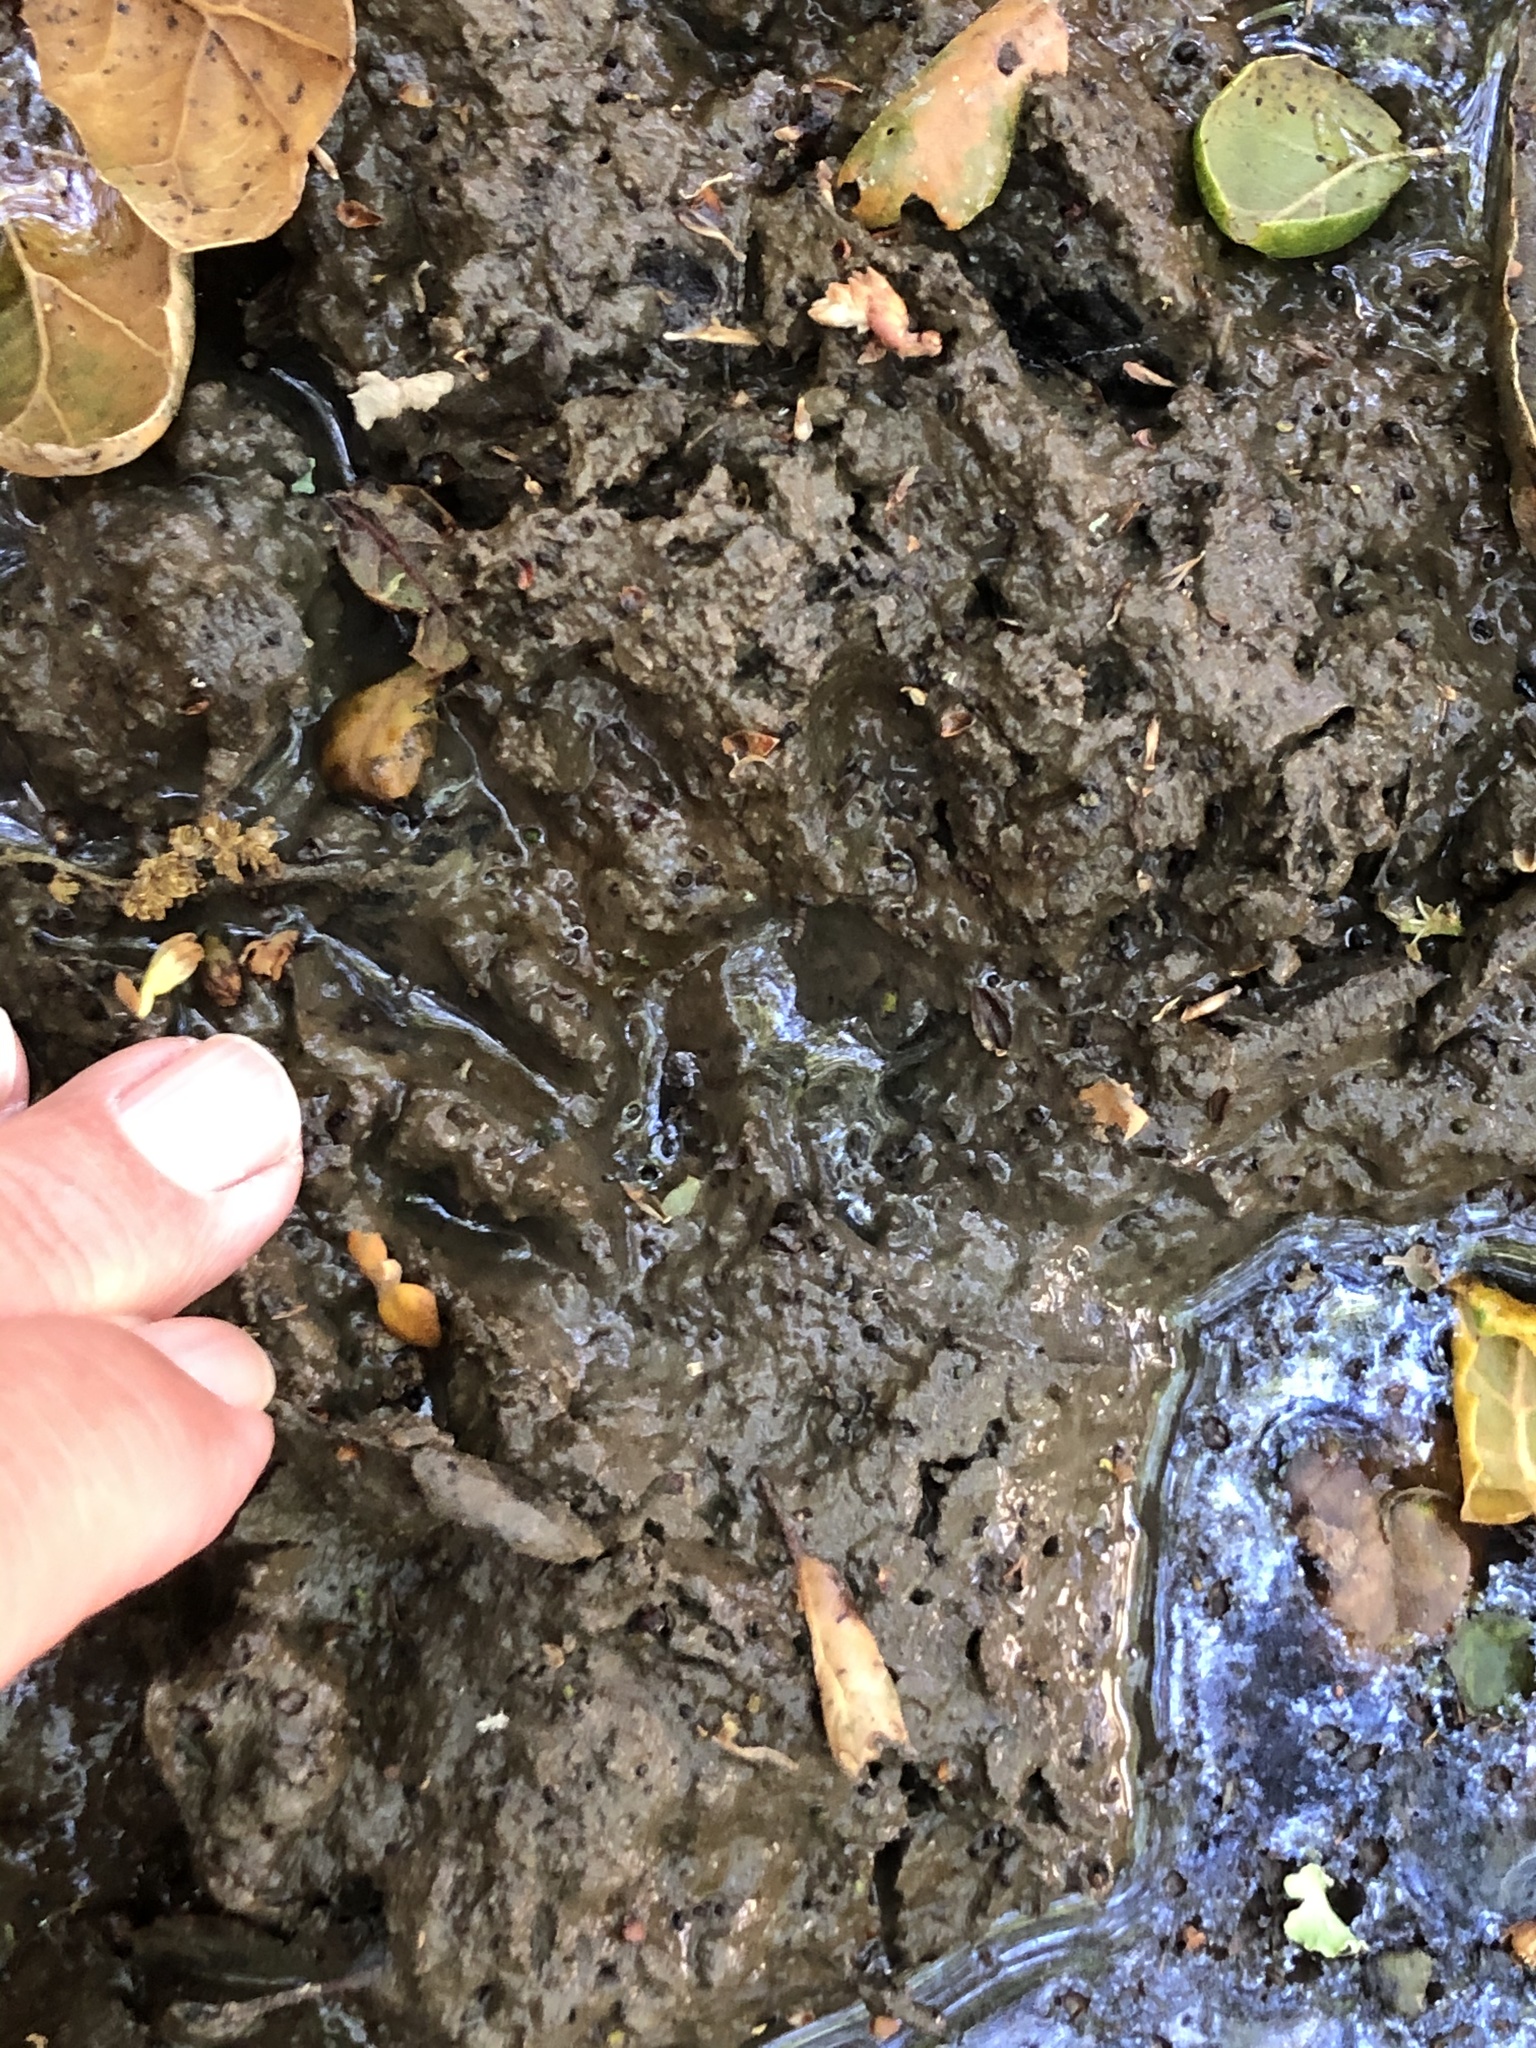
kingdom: Animalia
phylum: Chordata
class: Mammalia
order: Carnivora
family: Procyonidae
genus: Procyon
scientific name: Procyon lotor
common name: Raccoon
